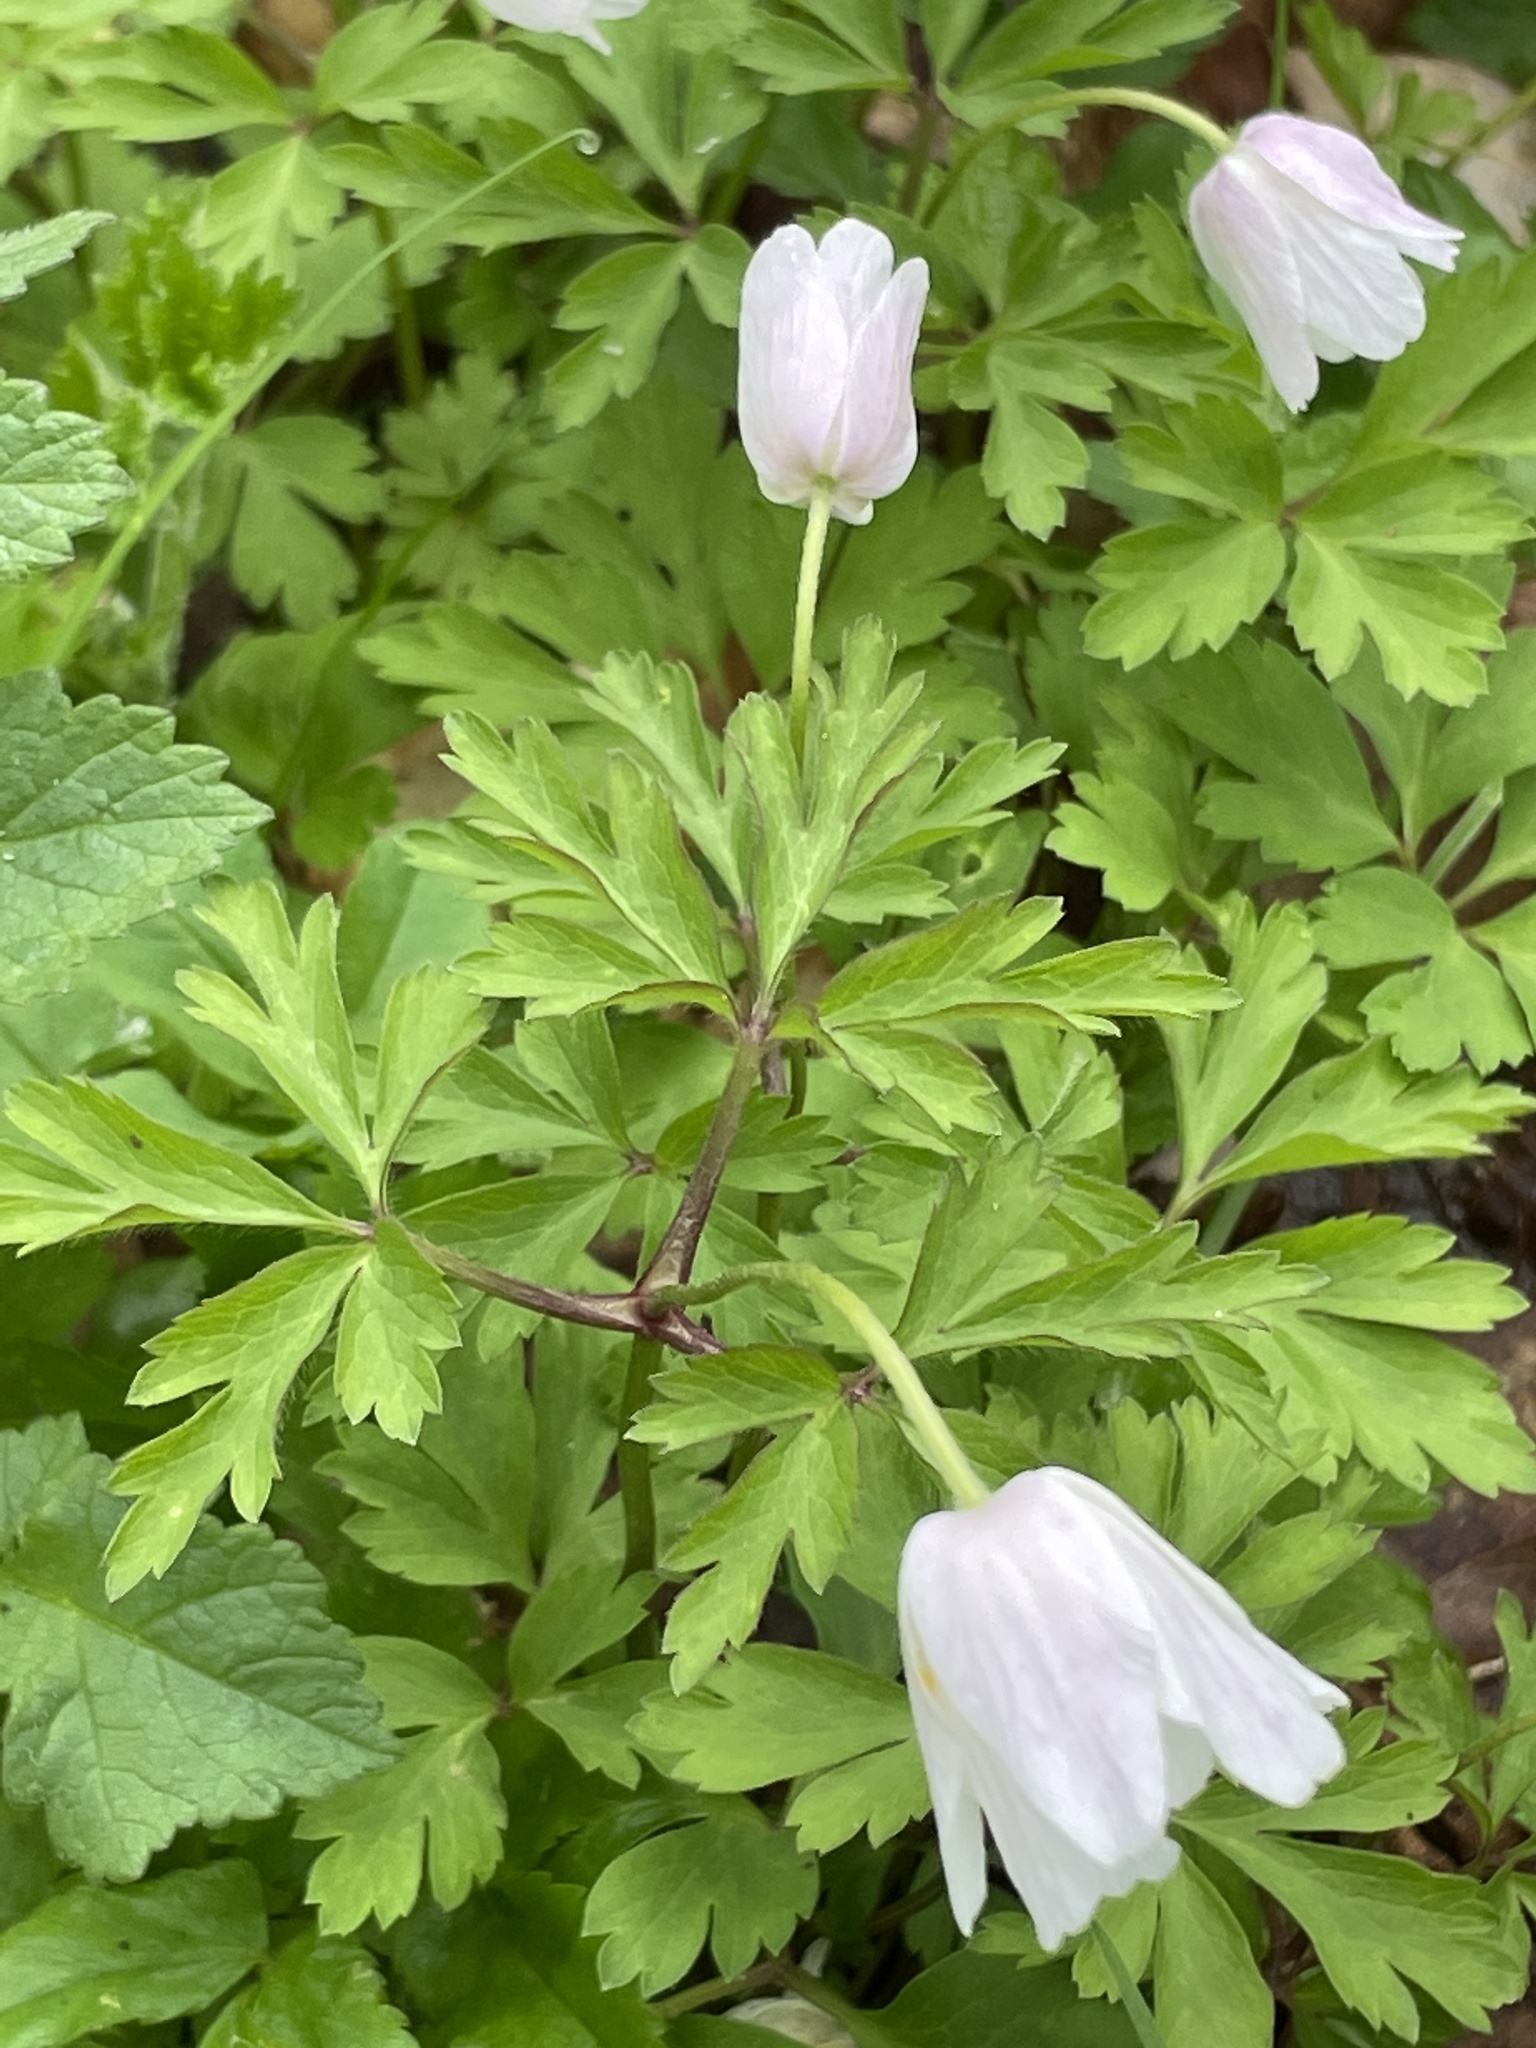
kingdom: Plantae
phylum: Tracheophyta
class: Magnoliopsida
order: Ranunculales
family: Ranunculaceae
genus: Anemone
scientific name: Anemone nemorosa
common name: Wood anemone
